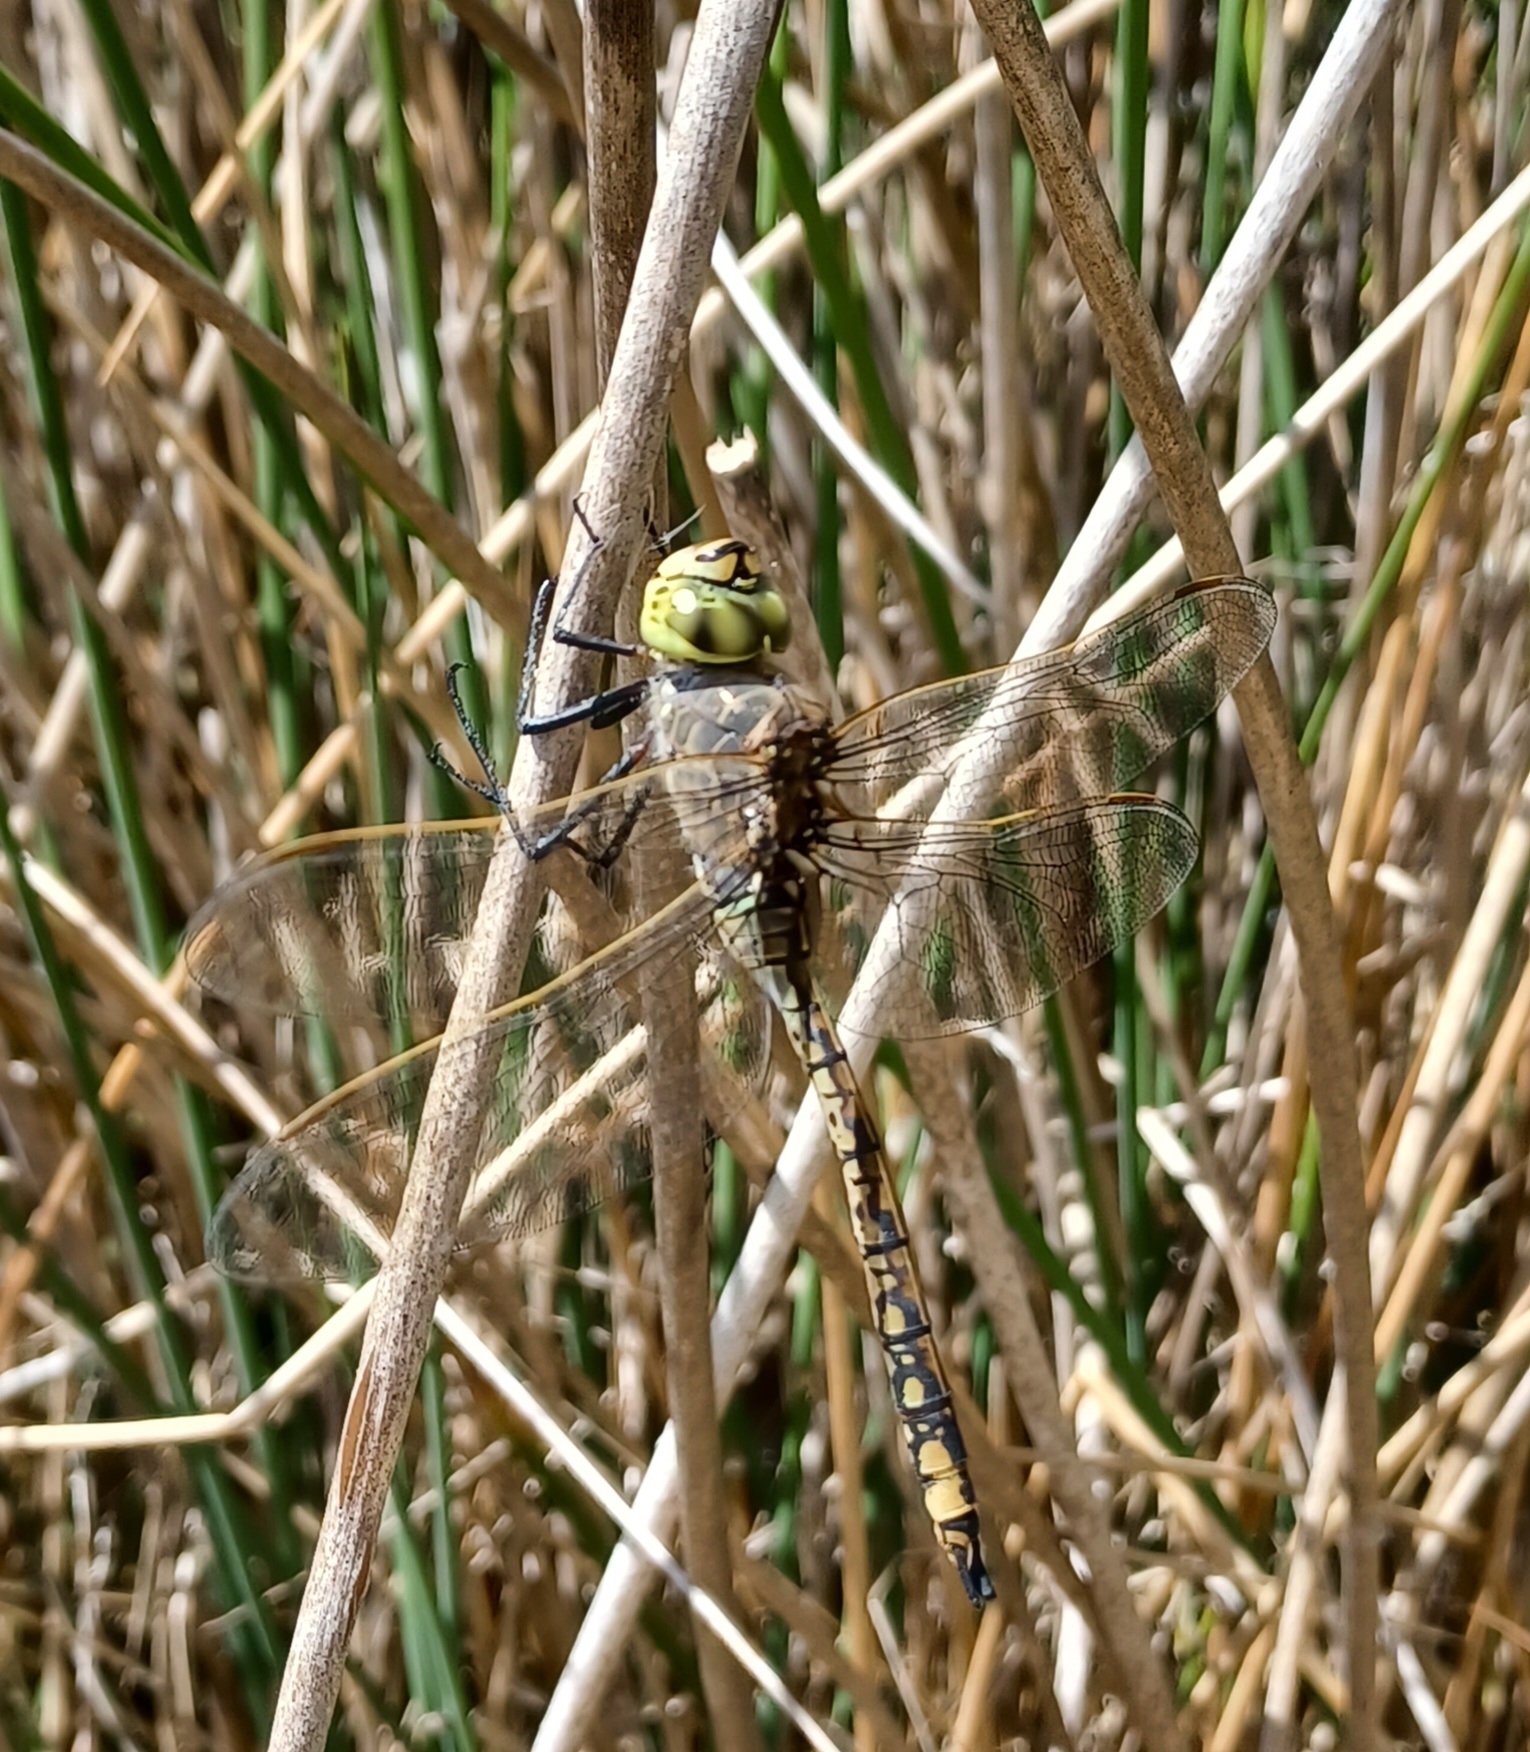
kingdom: Animalia
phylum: Arthropoda
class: Insecta
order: Odonata
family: Aeshnidae
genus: Anax
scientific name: Anax papuensis
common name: Australian emperor
